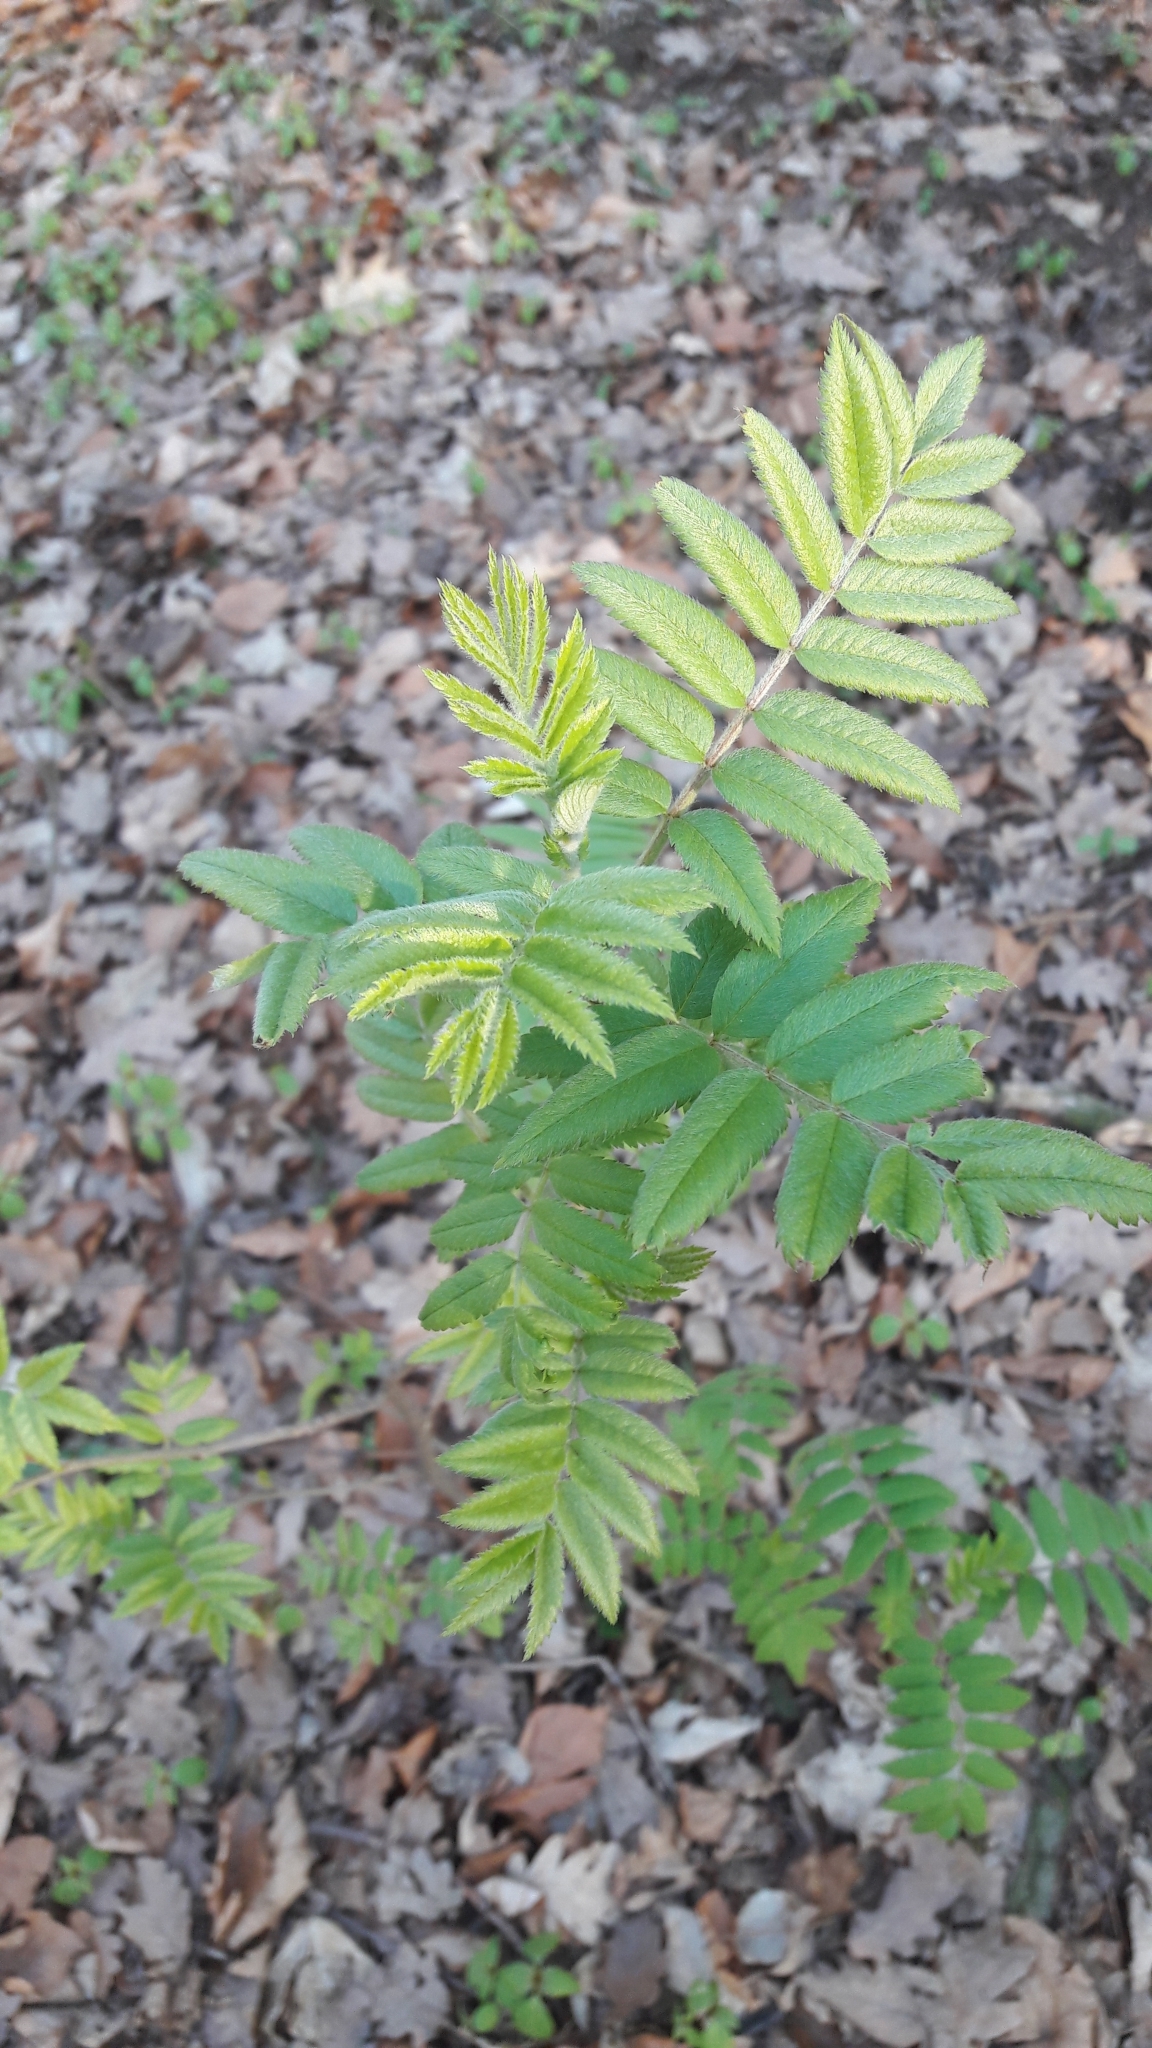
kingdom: Plantae
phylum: Tracheophyta
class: Magnoliopsida
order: Rosales
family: Rosaceae
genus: Sorbus
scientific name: Sorbus aucuparia
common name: Rowan
